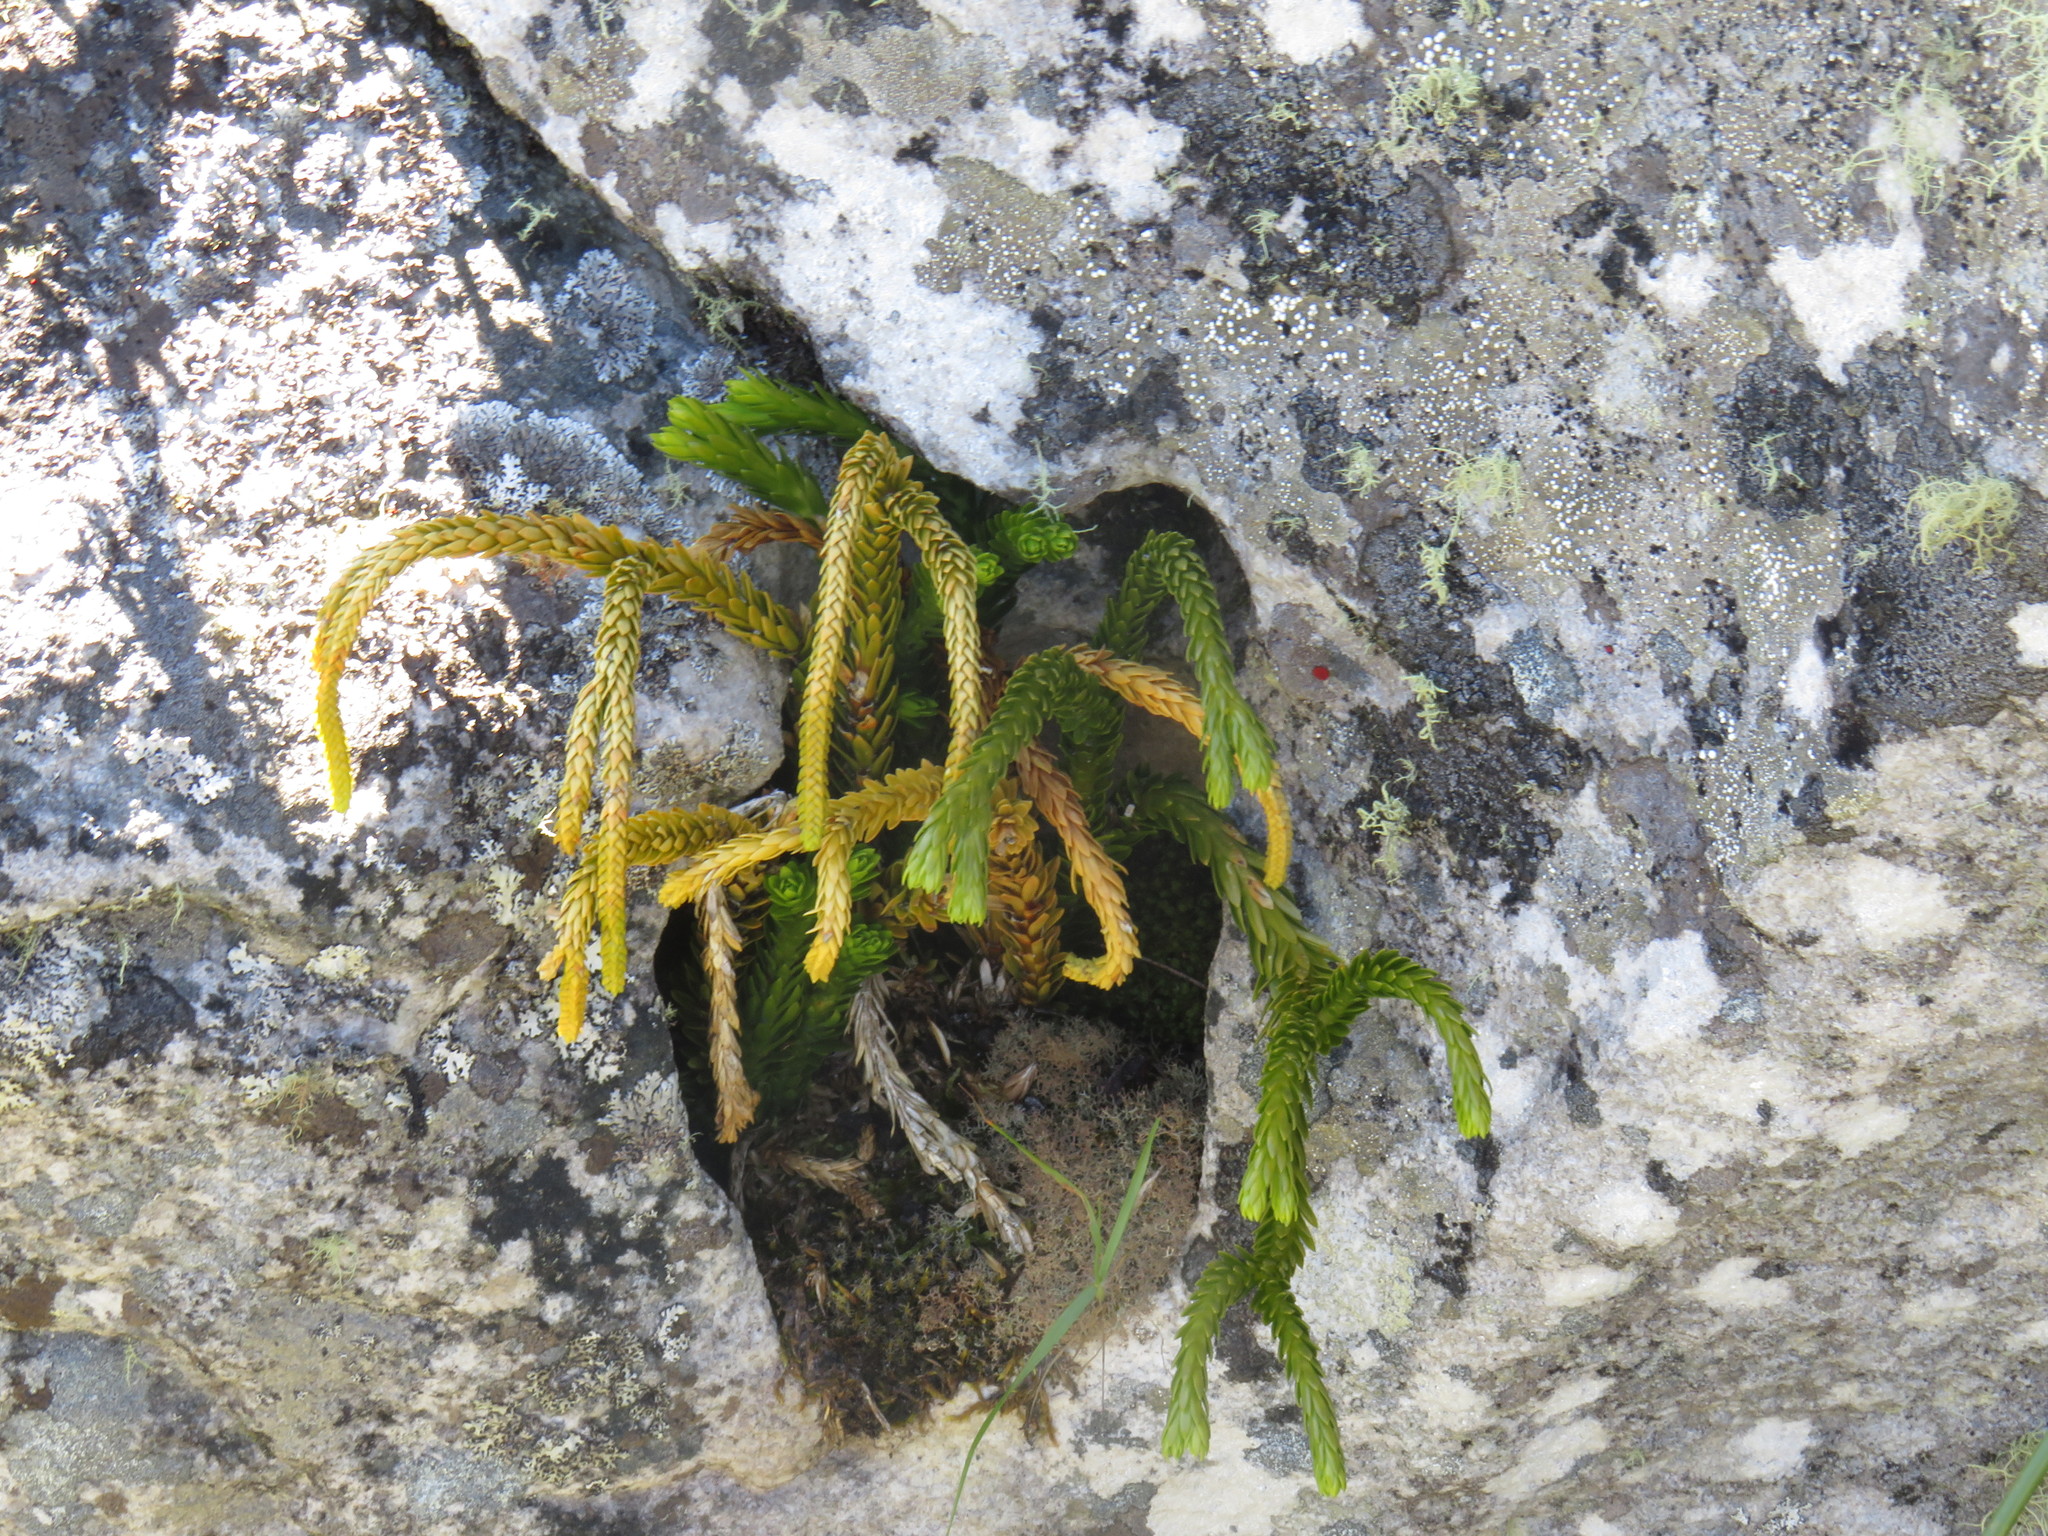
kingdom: Plantae
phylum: Tracheophyta
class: Lycopodiopsida
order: Lycopodiales
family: Lycopodiaceae
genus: Phlegmariurus
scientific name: Phlegmariurus gnidioides
